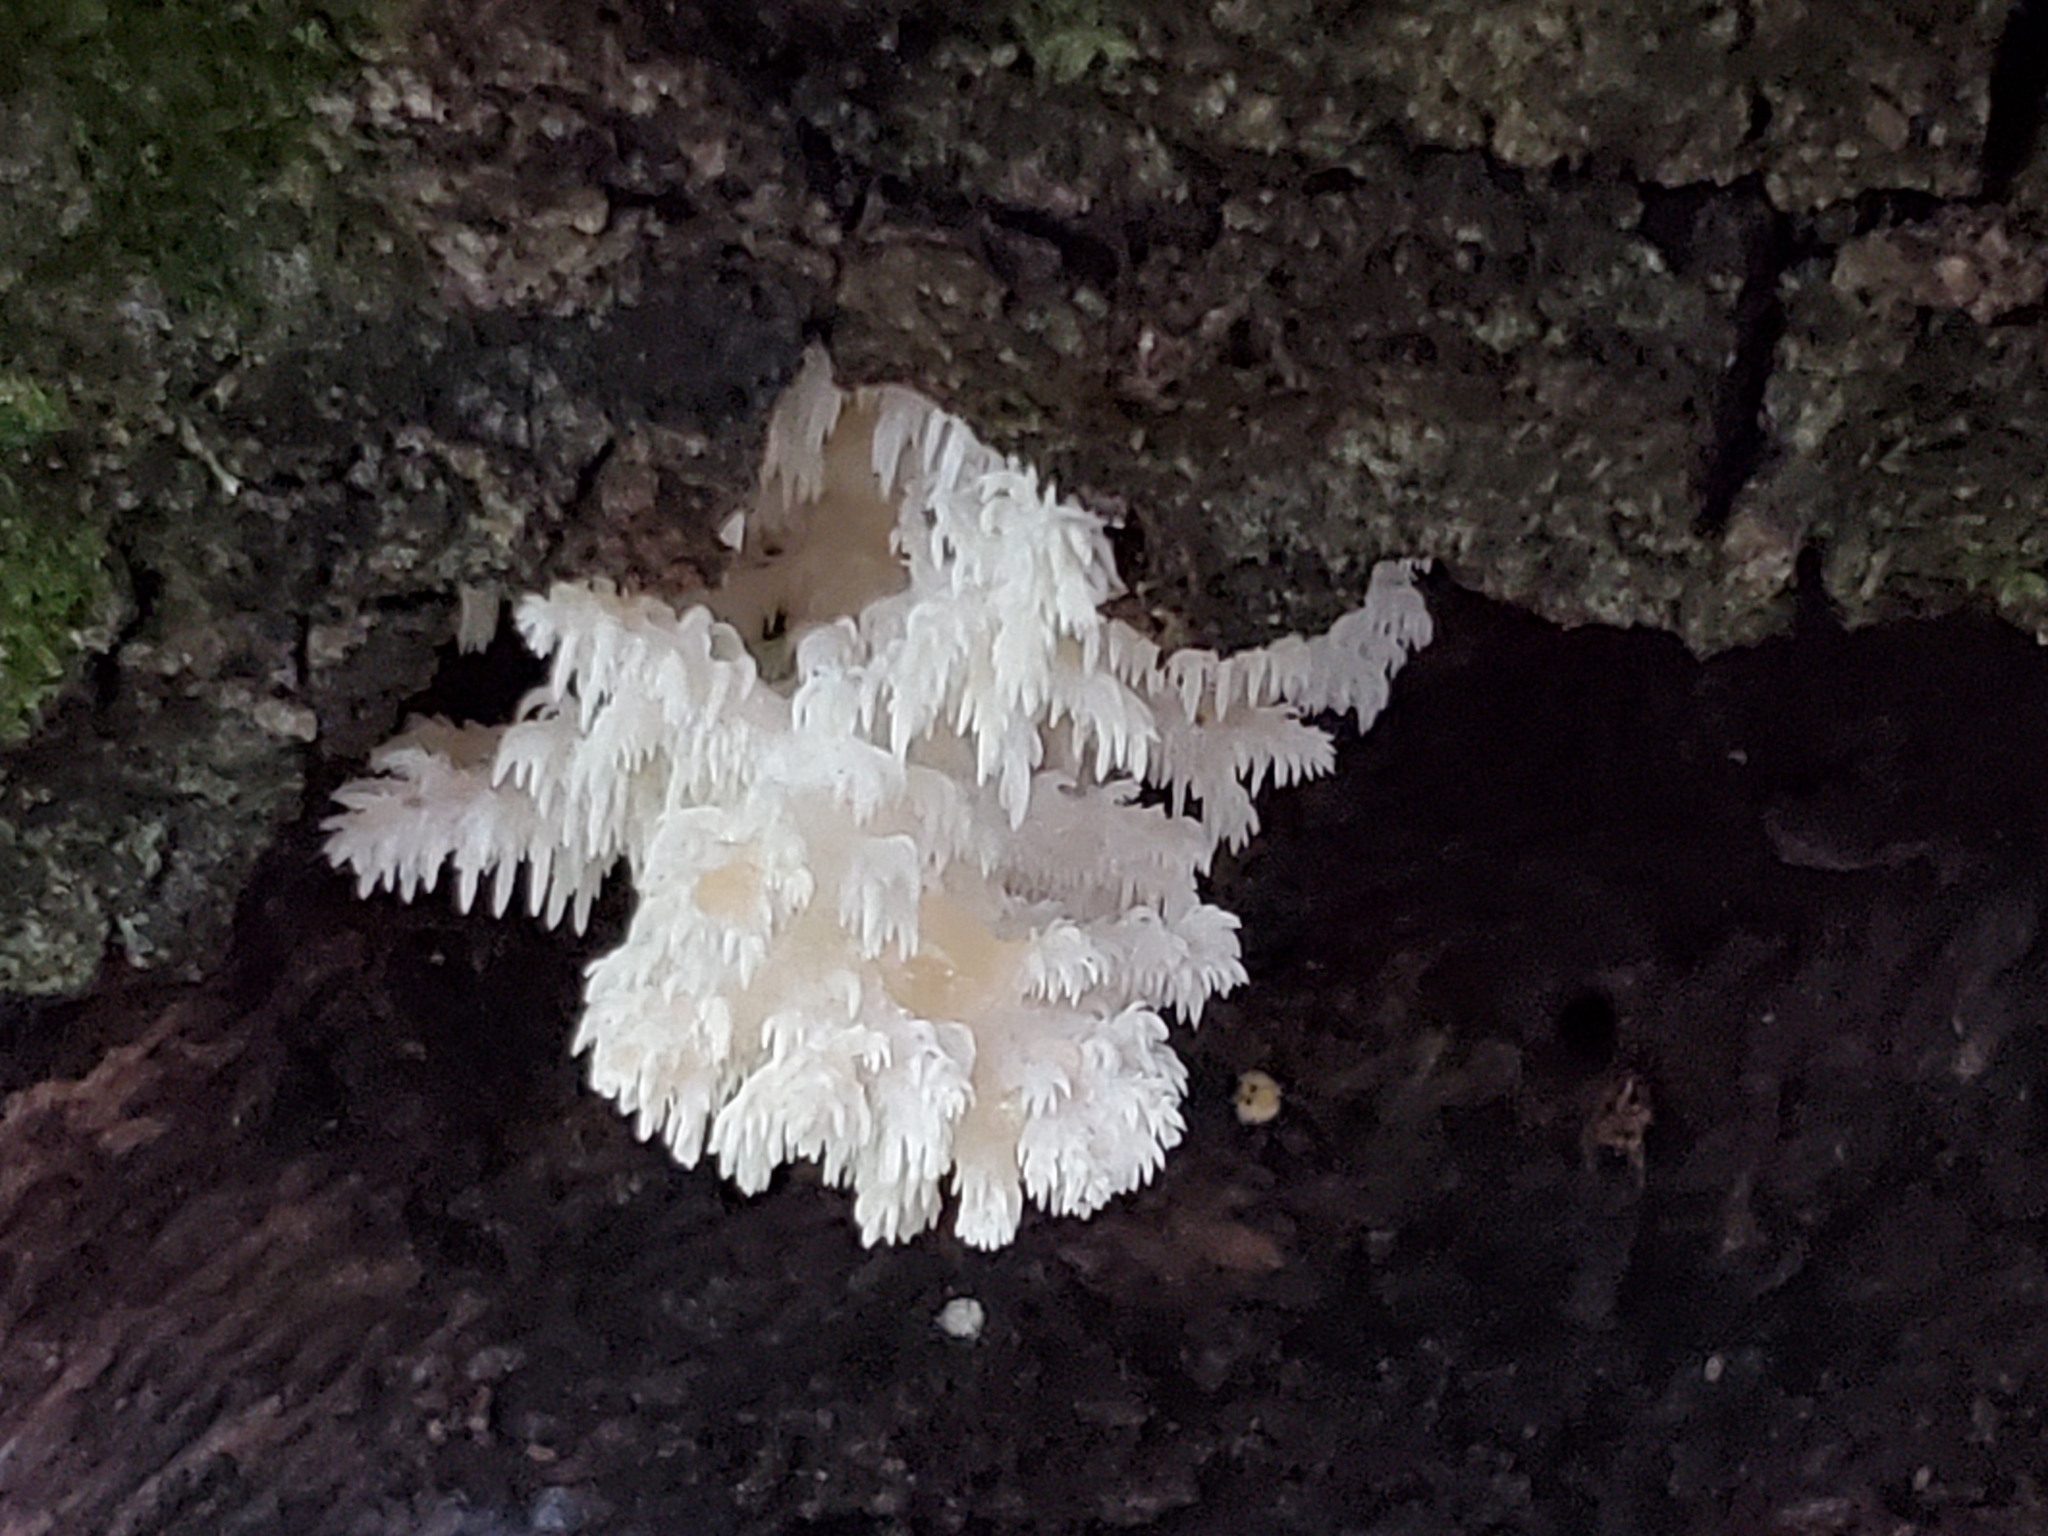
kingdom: Fungi
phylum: Basidiomycota
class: Agaricomycetes
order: Russulales
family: Hericiaceae
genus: Hericium
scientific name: Hericium coralloides
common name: Coral tooth
